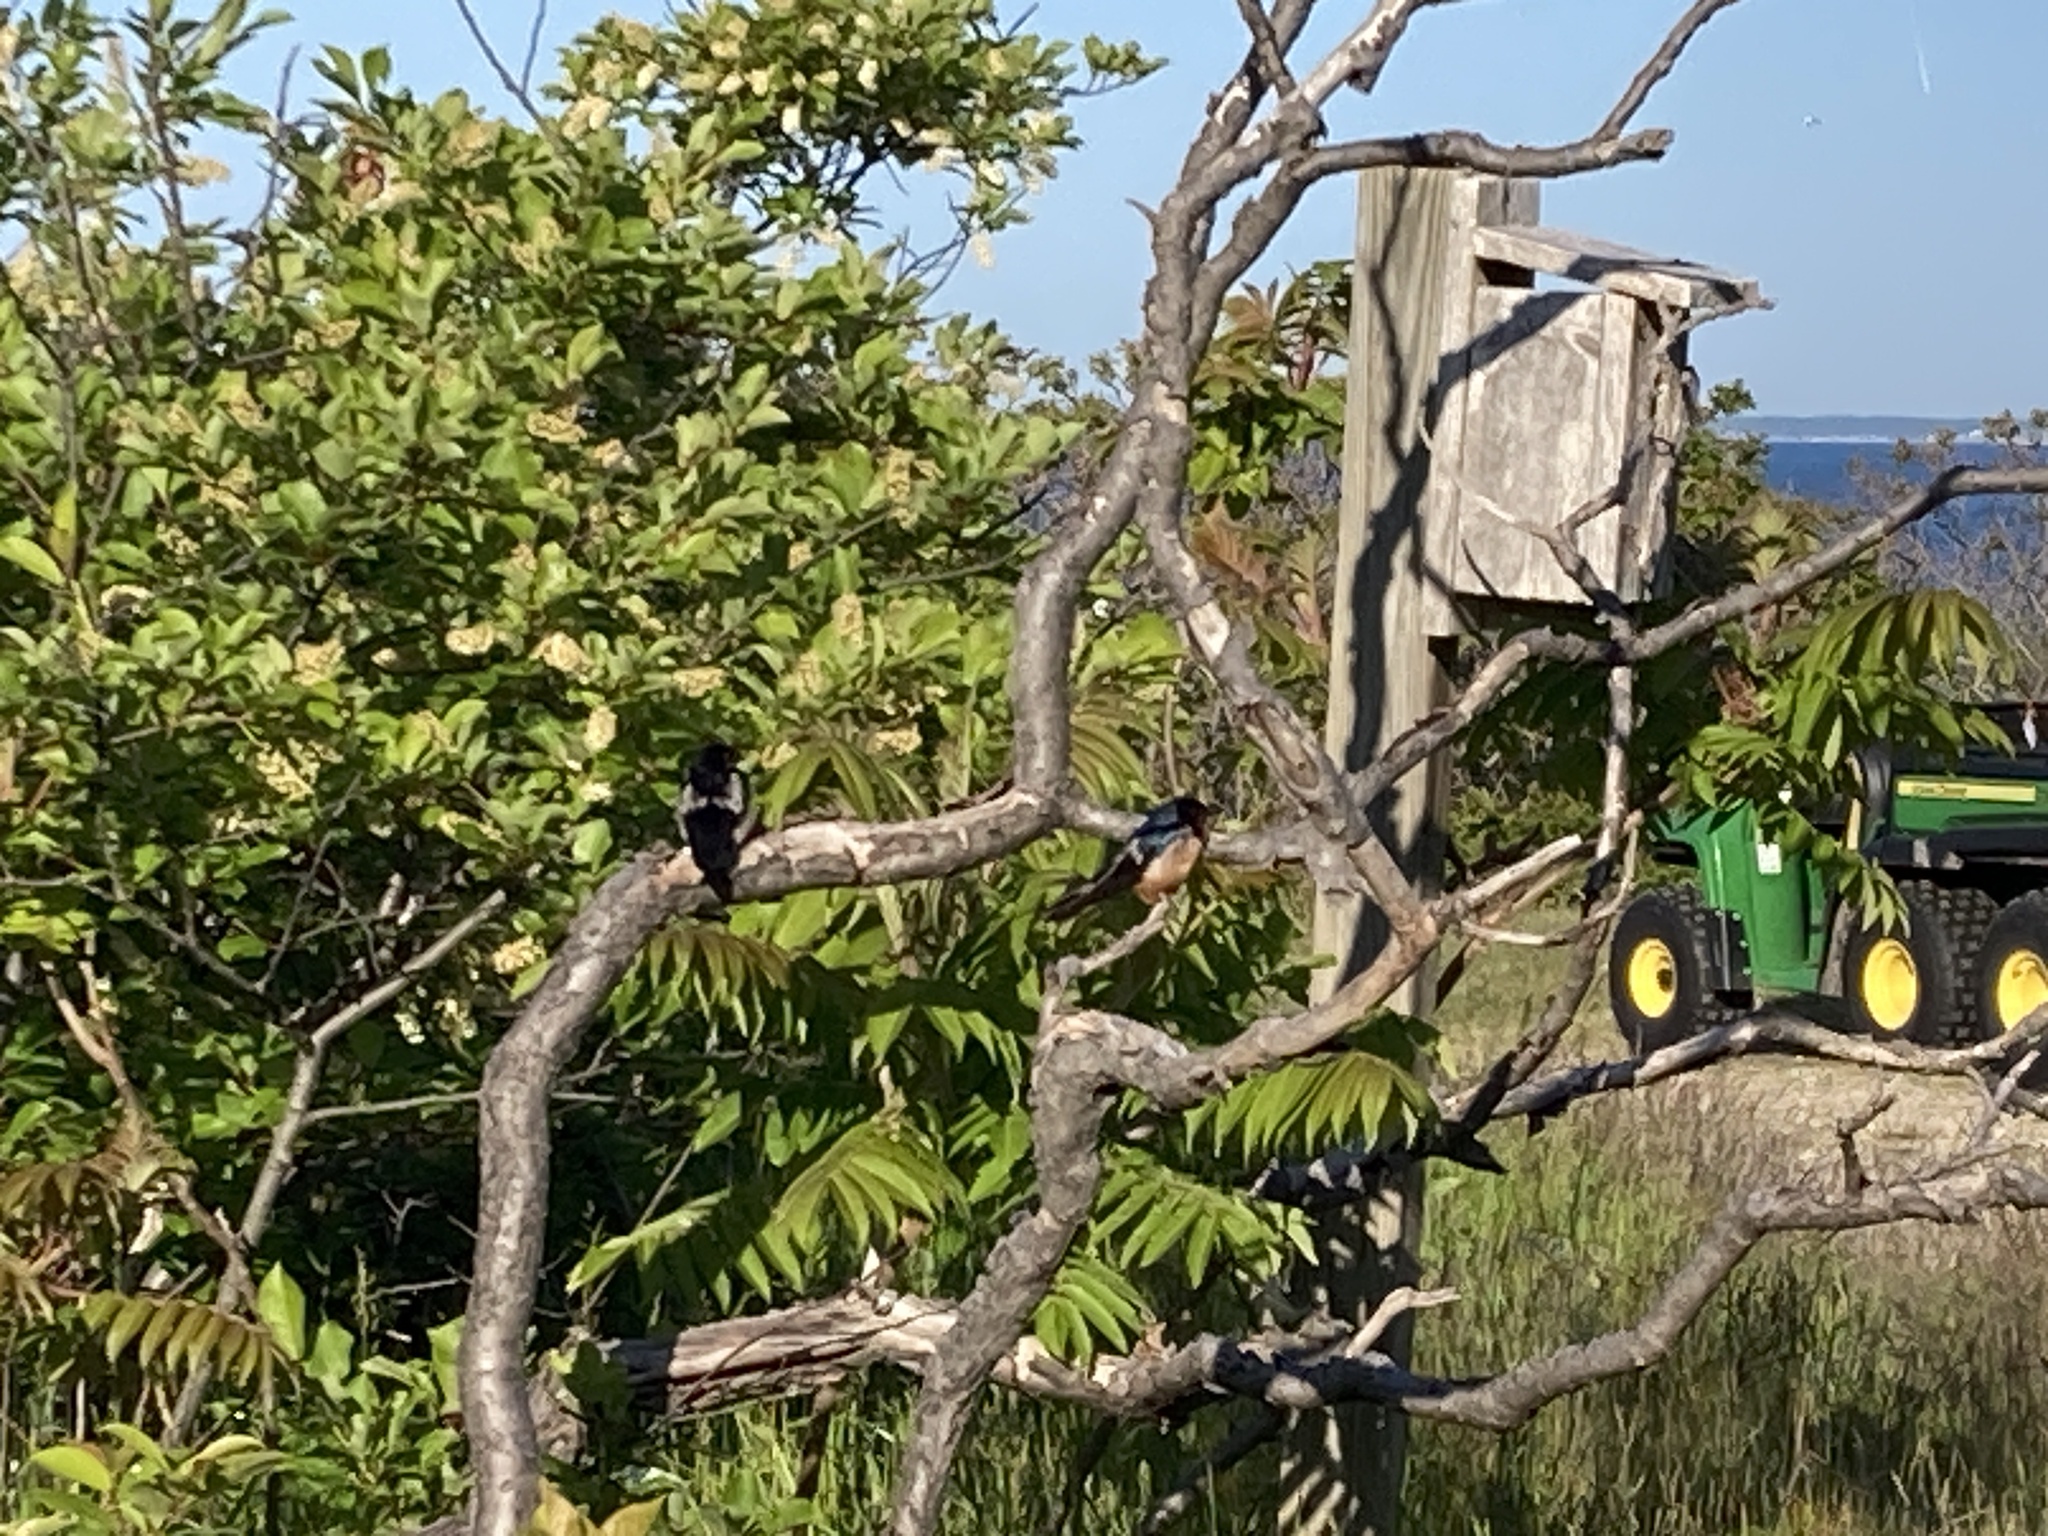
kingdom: Animalia
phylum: Chordata
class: Aves
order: Passeriformes
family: Hirundinidae
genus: Hirundo
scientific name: Hirundo rustica
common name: Barn swallow
